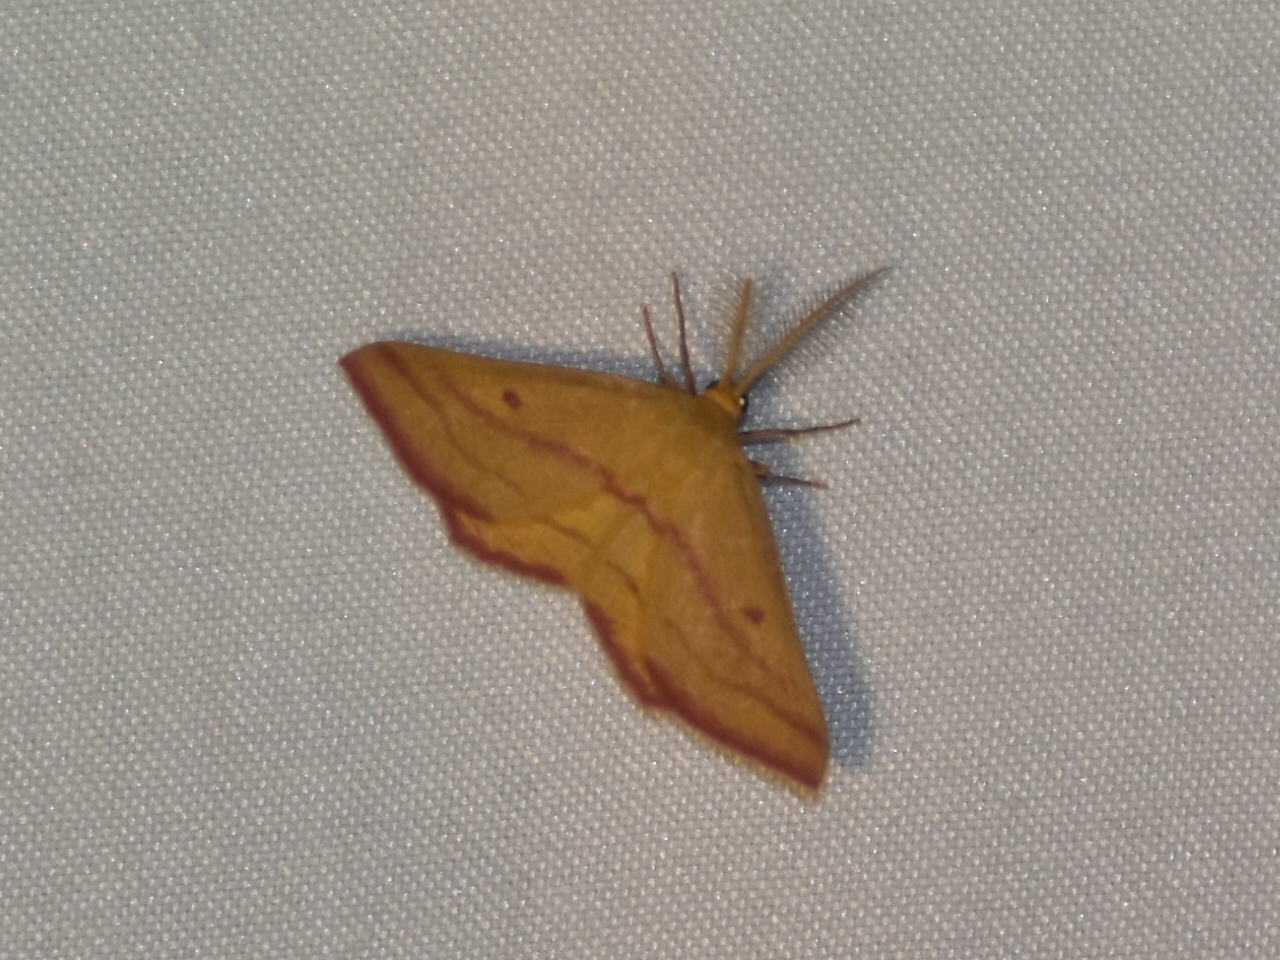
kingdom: Animalia
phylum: Arthropoda
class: Insecta
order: Lepidoptera
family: Geometridae
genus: Haematopis
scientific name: Haematopis grataria
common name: Chickweed geometer
